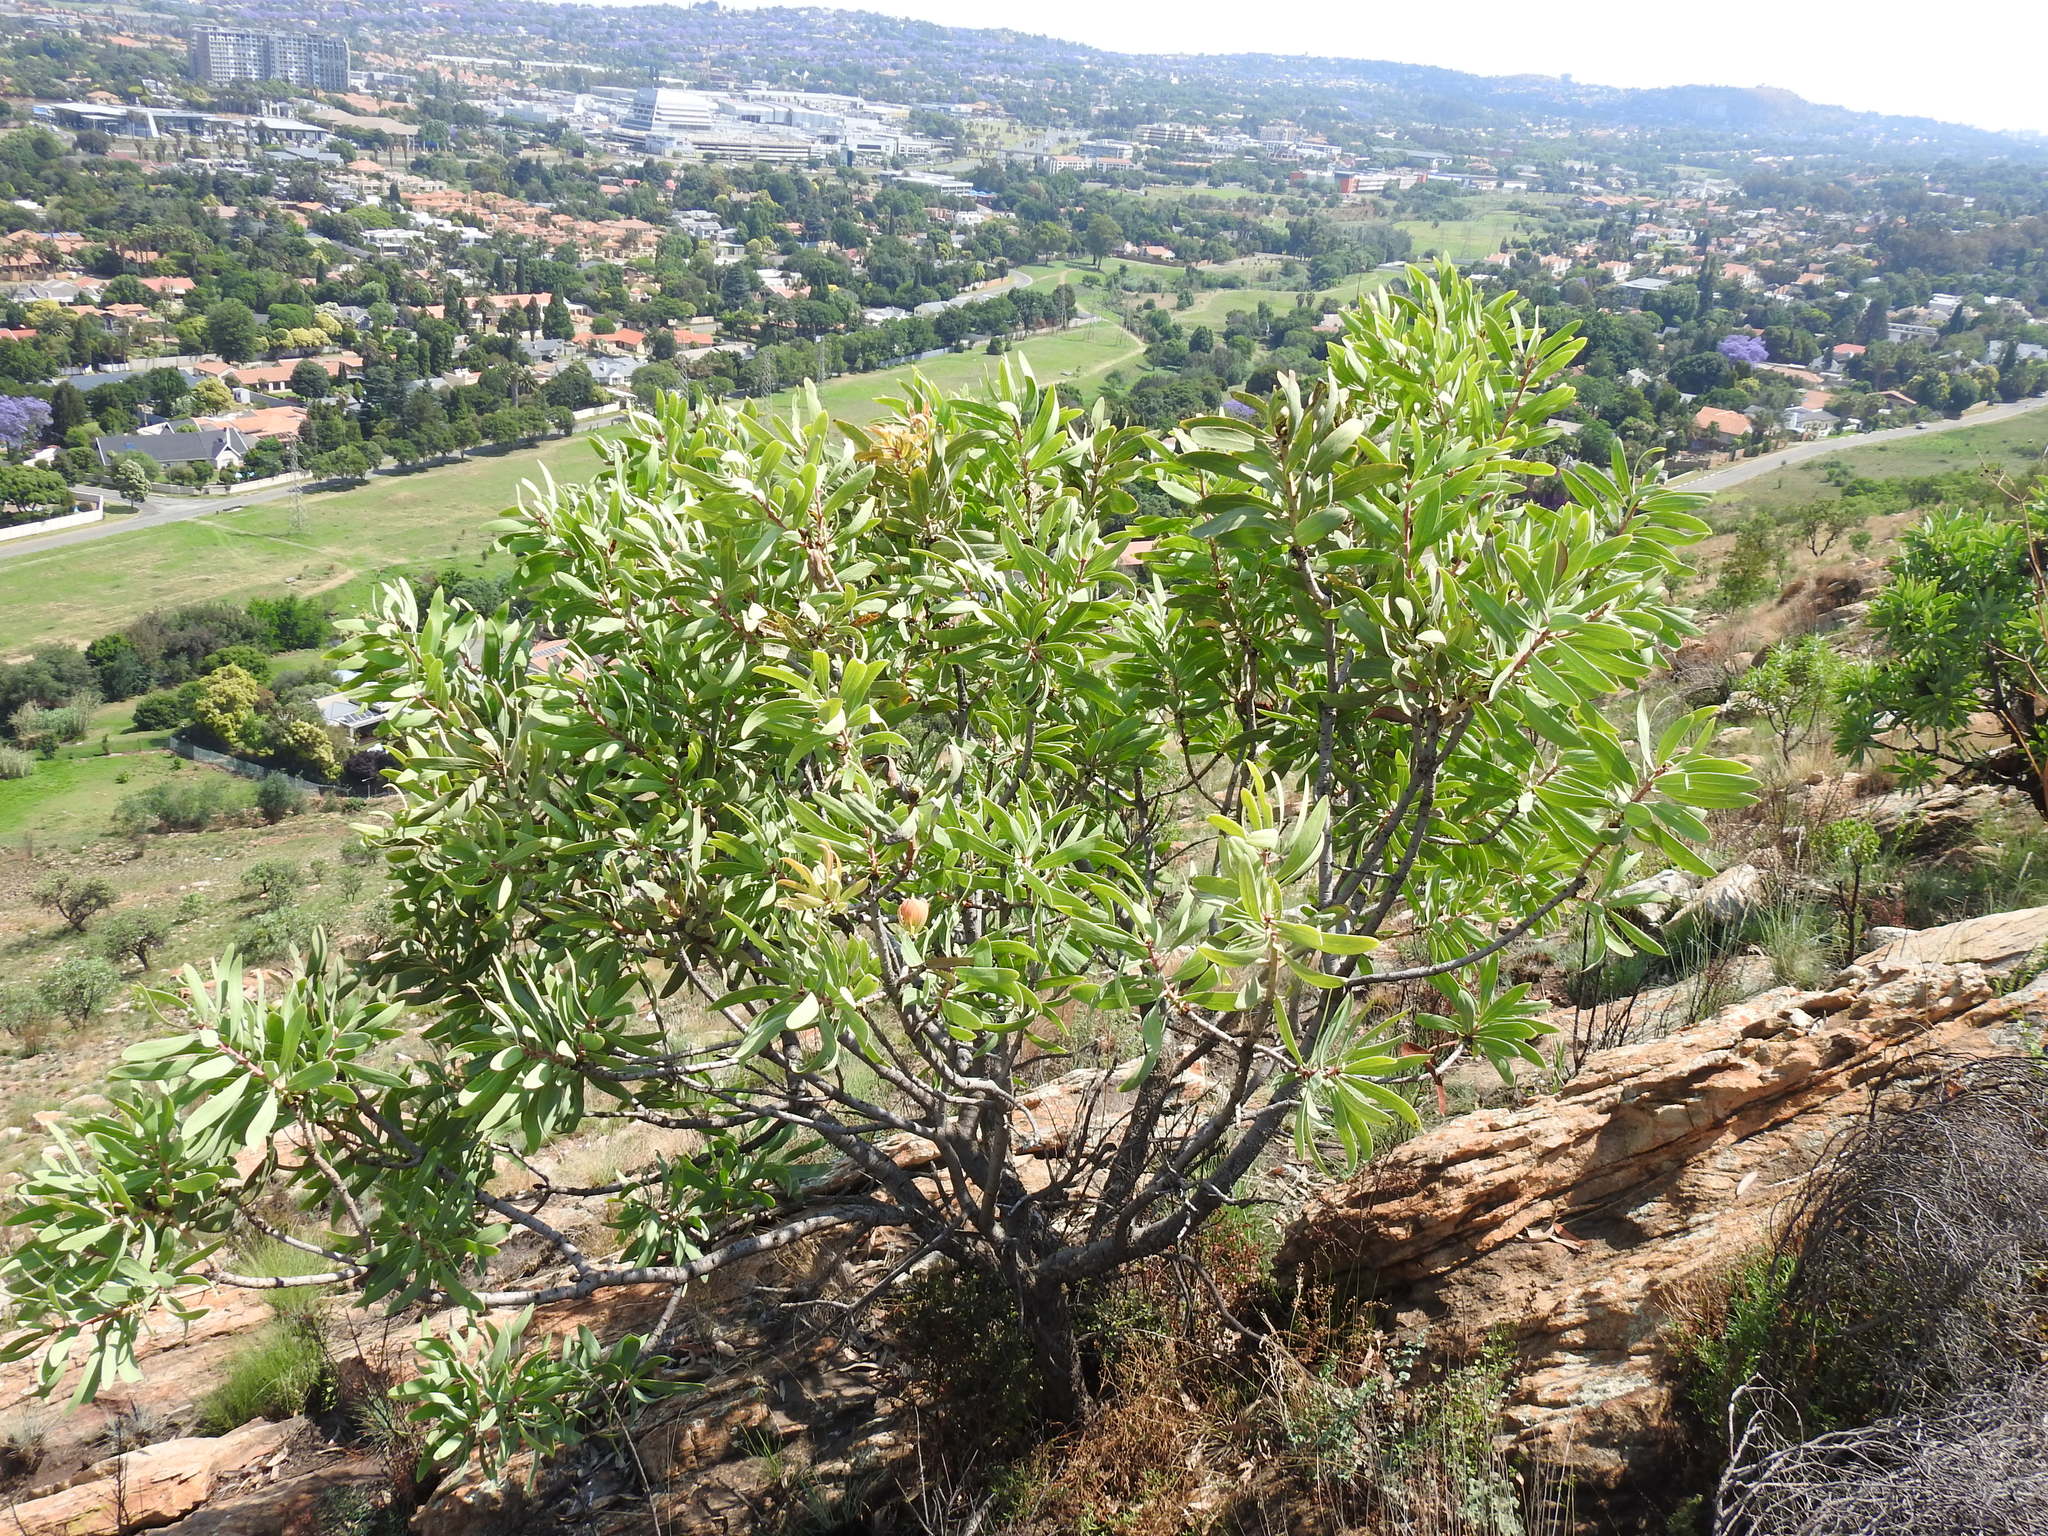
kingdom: Plantae
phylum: Tracheophyta
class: Magnoliopsida
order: Proteales
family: Proteaceae
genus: Protea
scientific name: Protea caffra
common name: Common sugarbush
